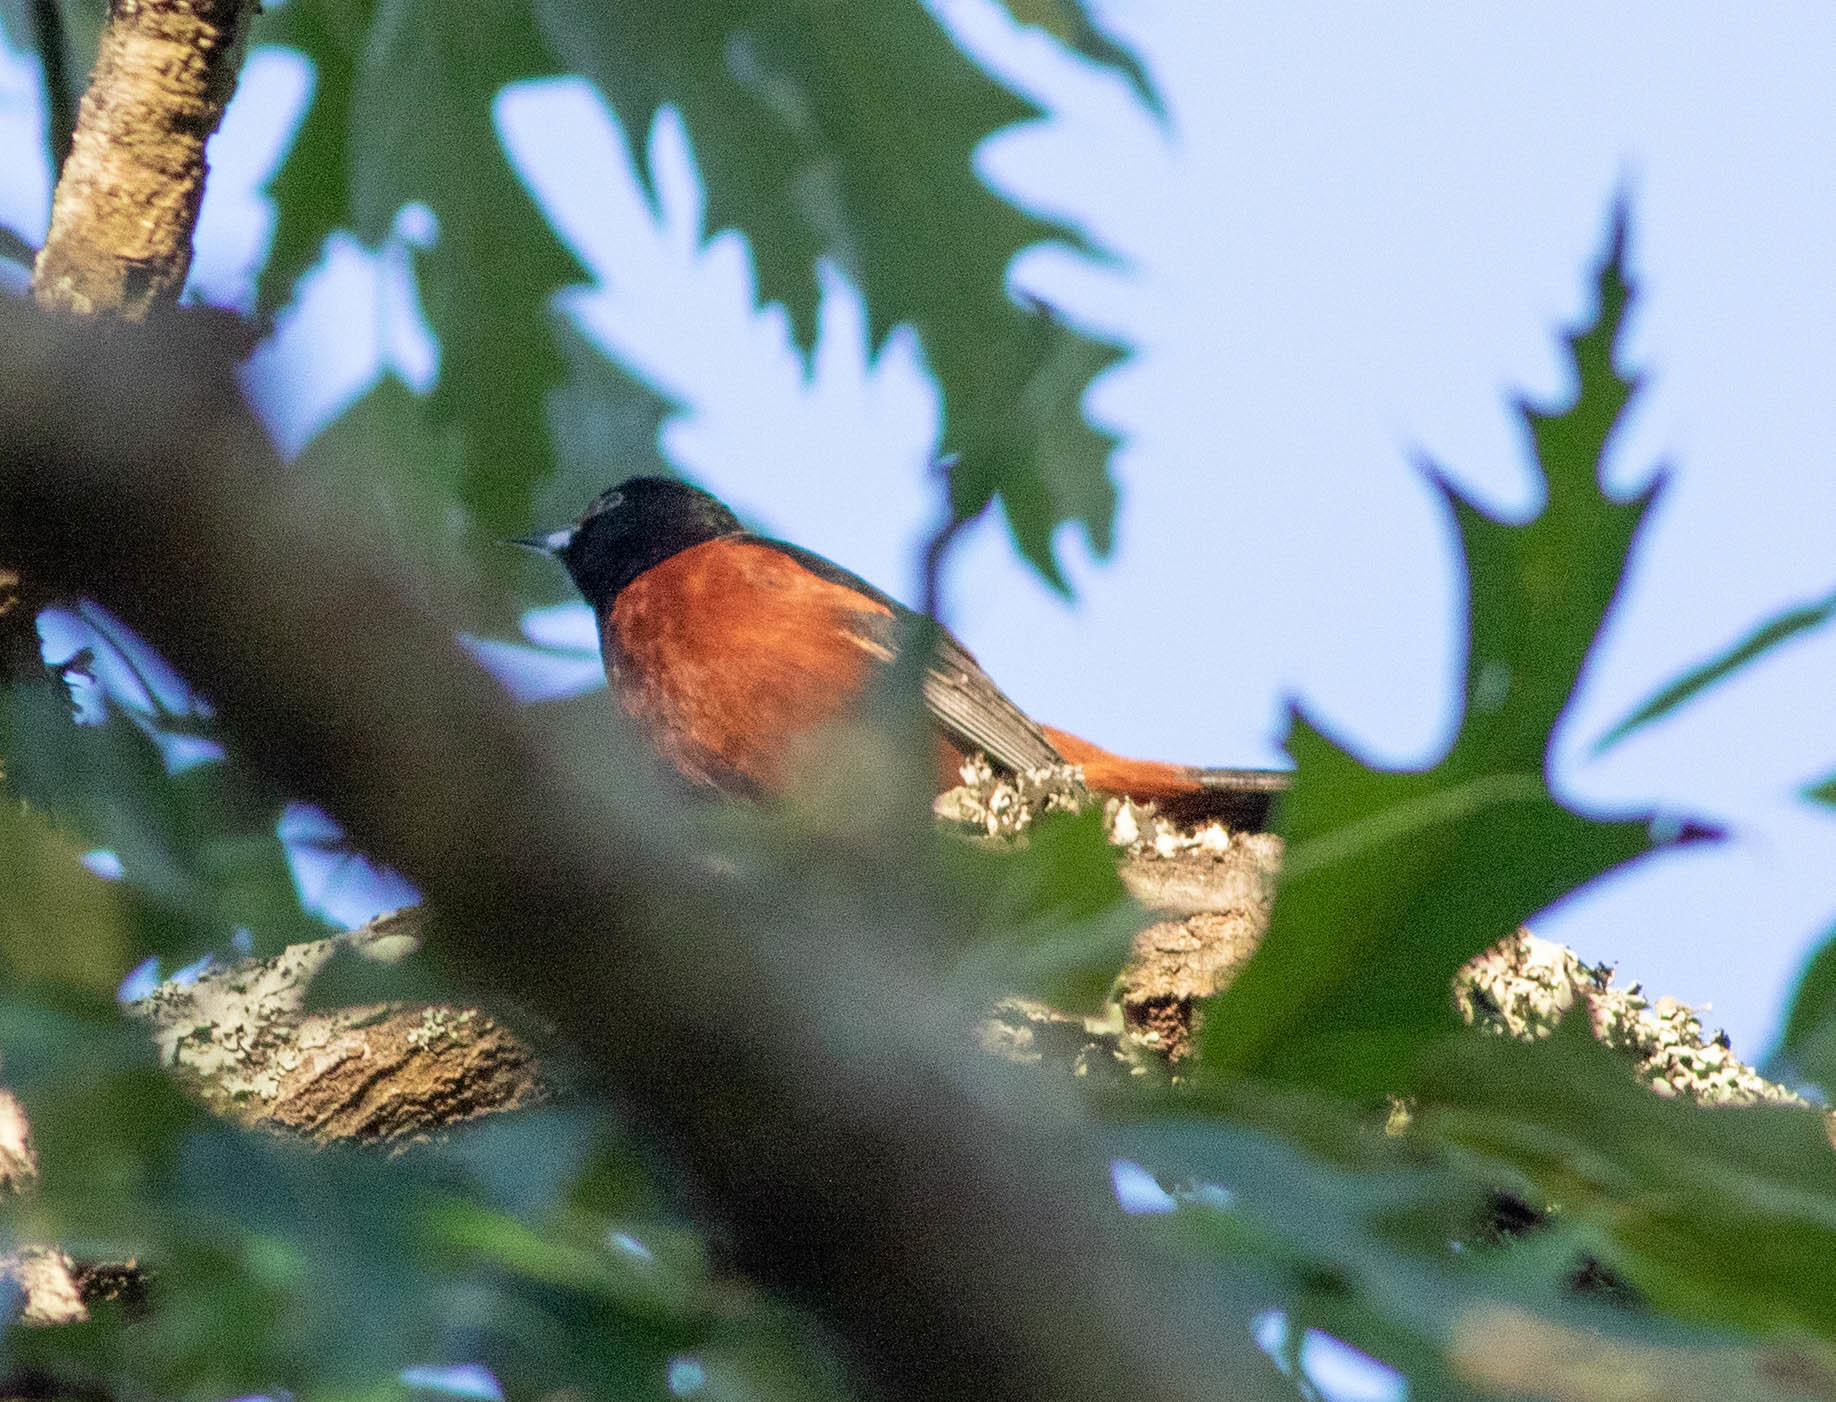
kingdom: Animalia
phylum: Chordata
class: Aves
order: Passeriformes
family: Icteridae
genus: Icterus
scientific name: Icterus spurius
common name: Orchard oriole
